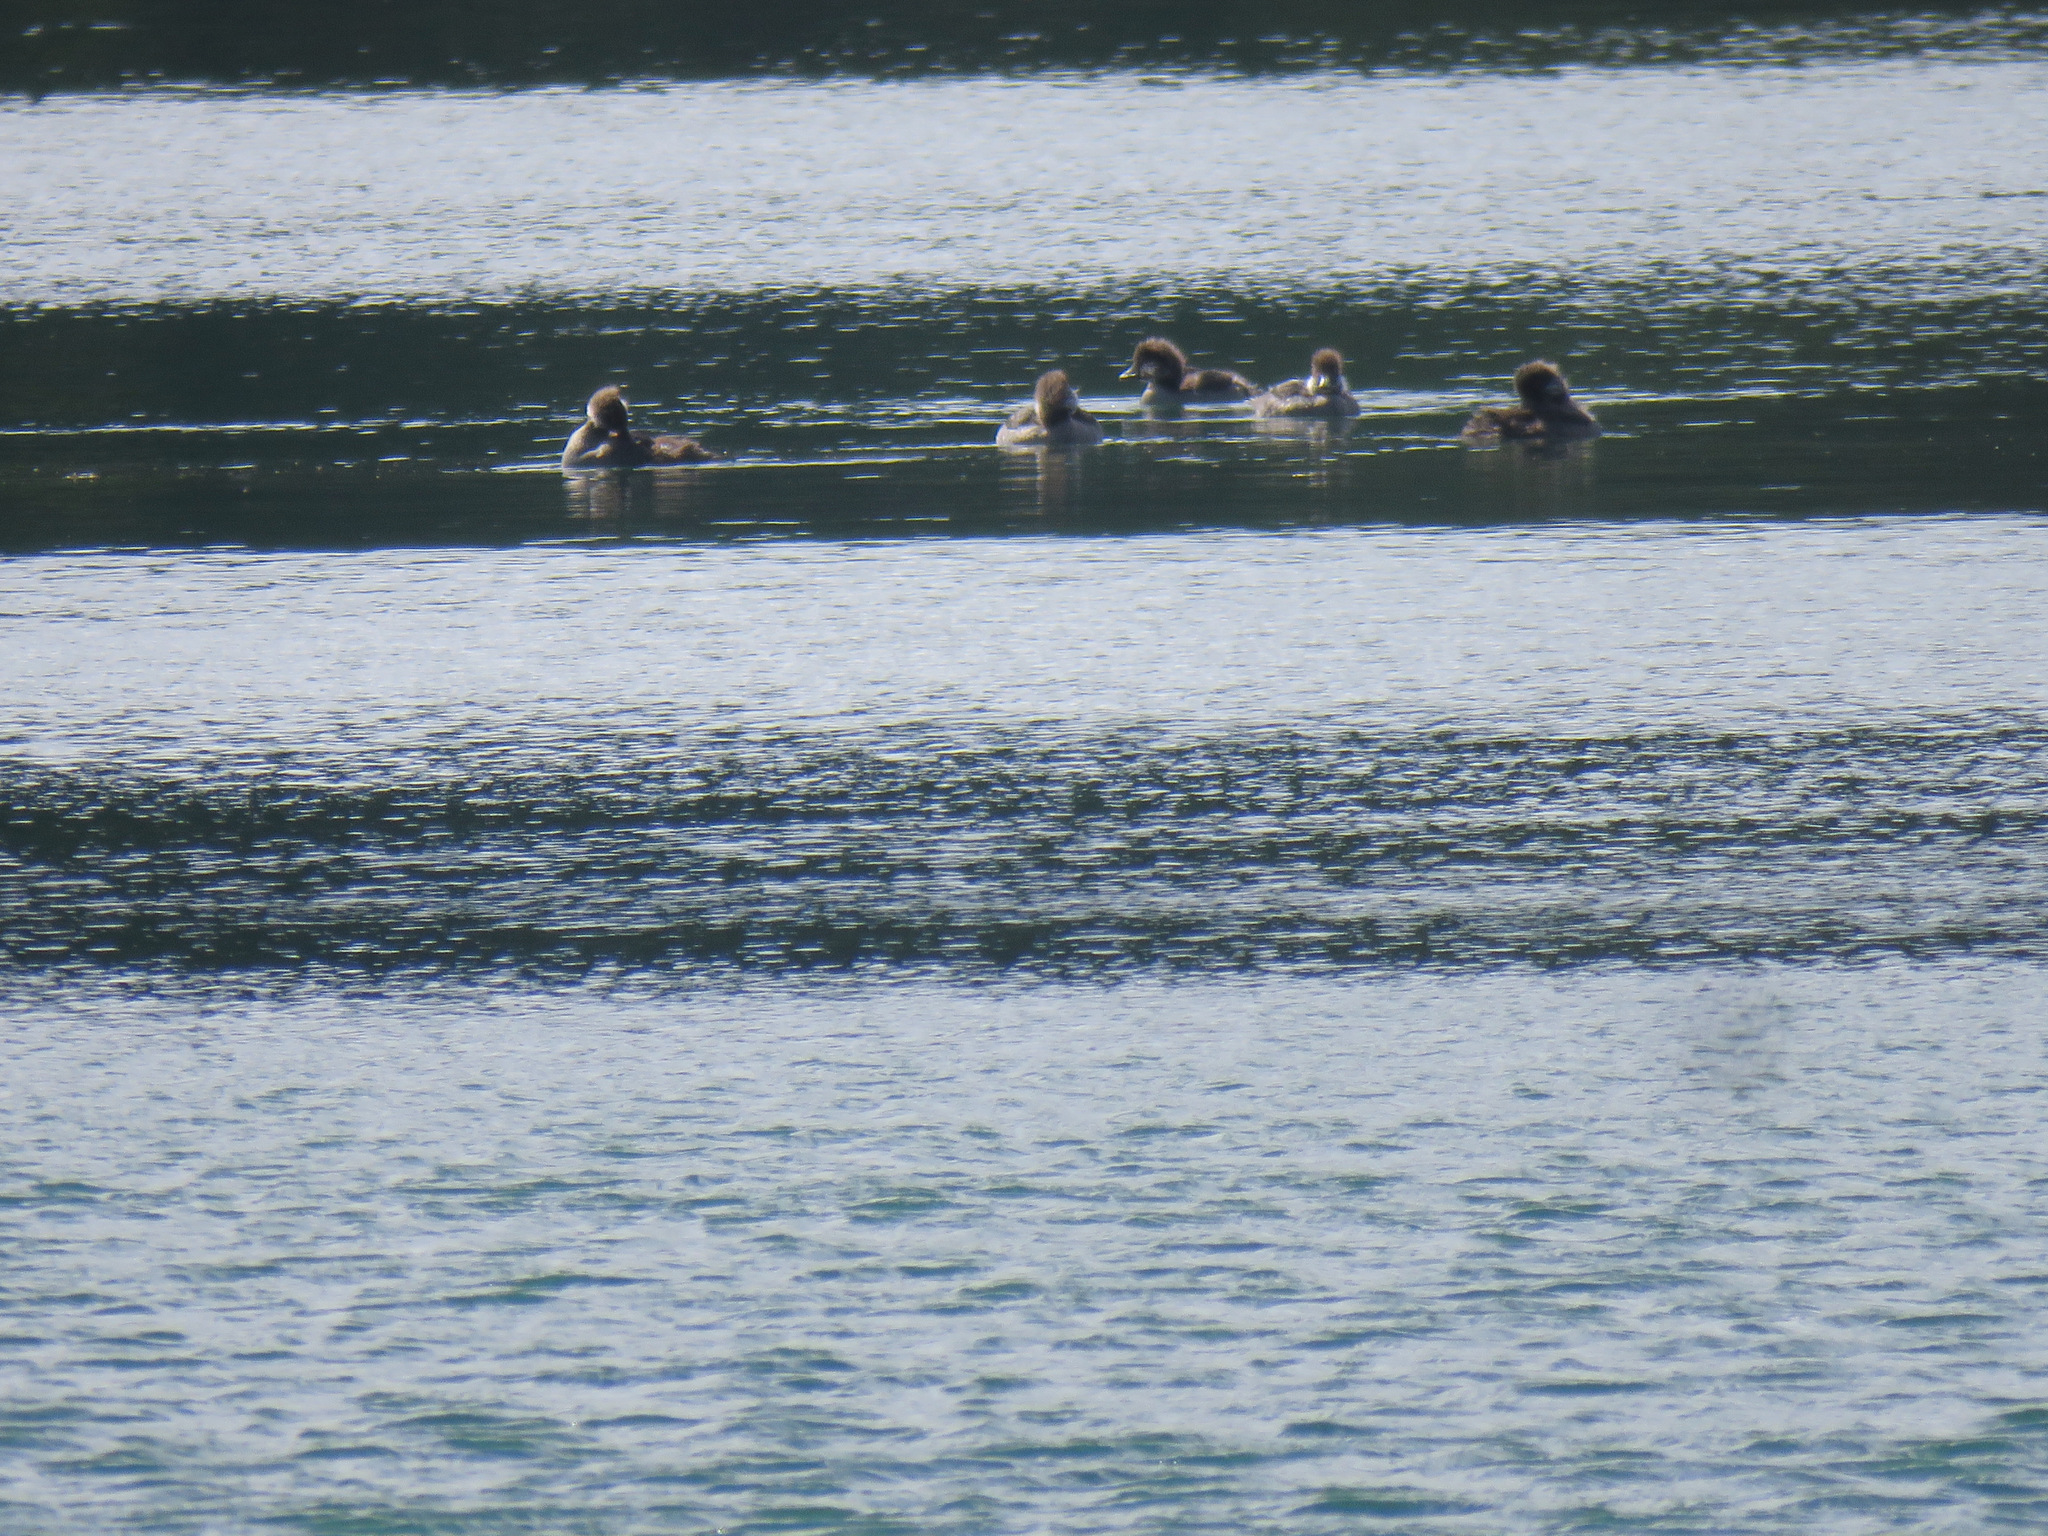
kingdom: Animalia
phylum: Chordata
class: Aves
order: Anseriformes
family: Anatidae
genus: Bucephala
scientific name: Bucephala albeola
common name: Bufflehead
